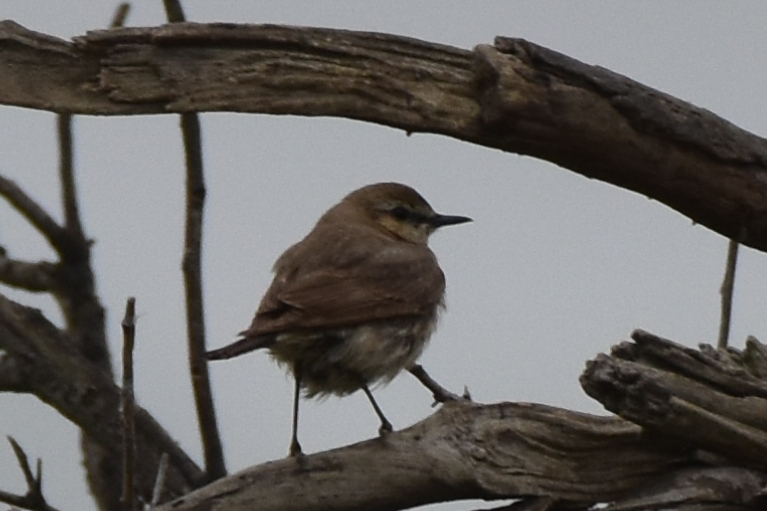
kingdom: Animalia
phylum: Chordata
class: Aves
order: Passeriformes
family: Muscicapidae
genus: Oenanthe
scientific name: Oenanthe isabellina
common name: Isabelline wheatear
